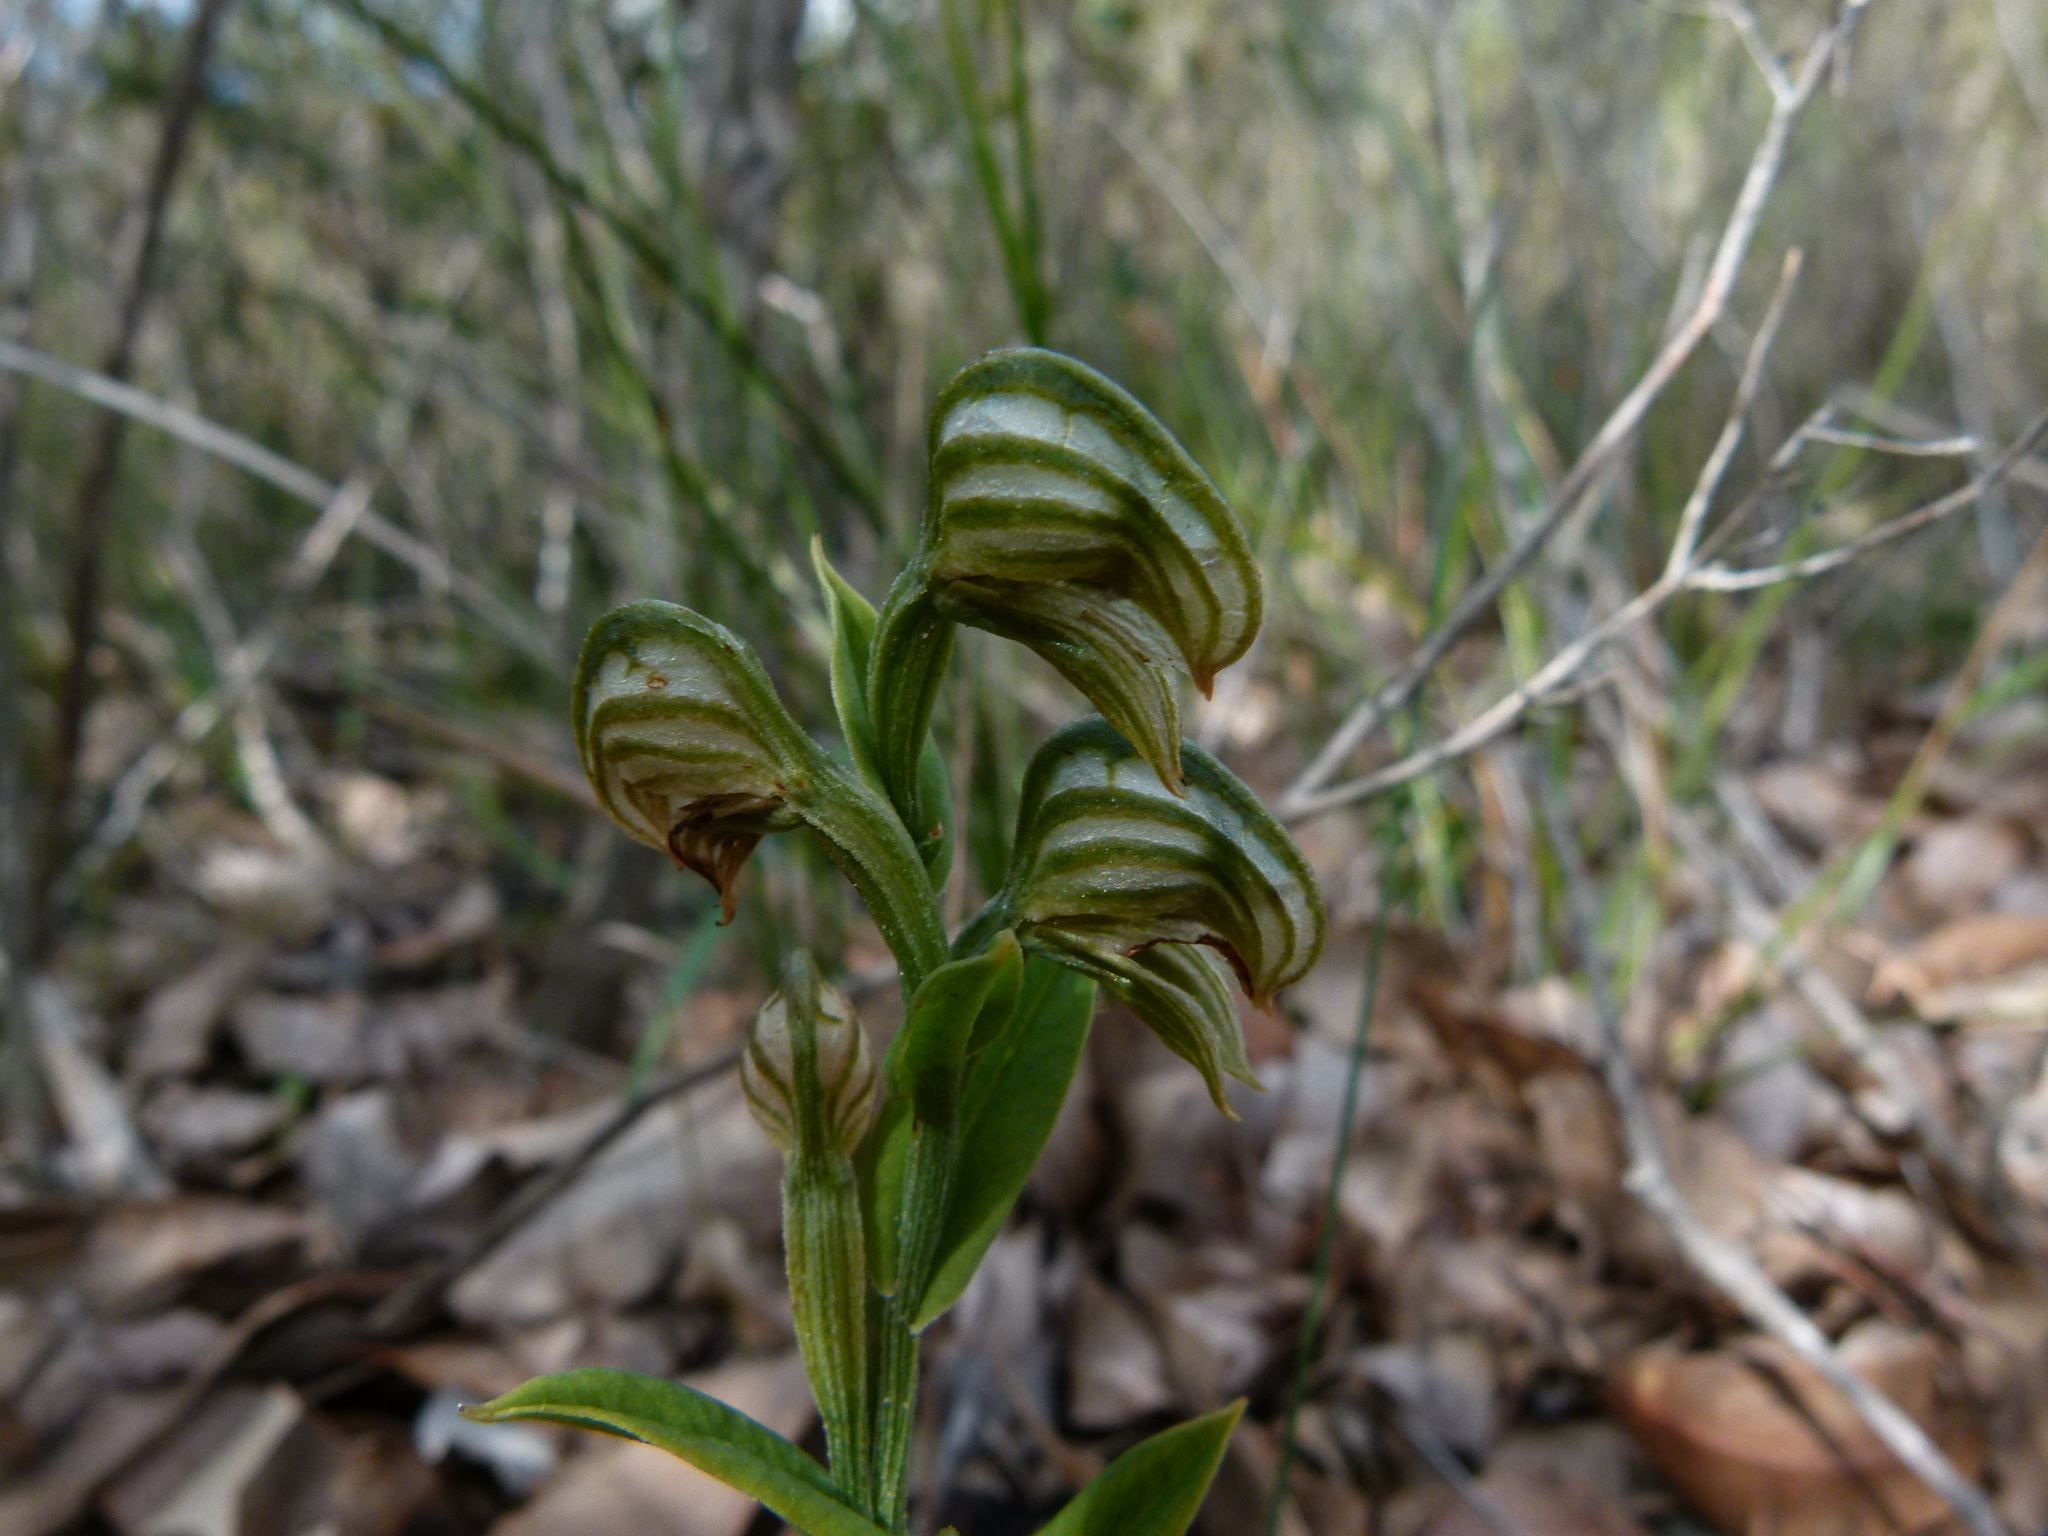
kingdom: Plantae
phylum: Tracheophyta
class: Liliopsida
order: Asparagales
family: Orchidaceae
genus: Pterostylis
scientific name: Pterostylis vittata
